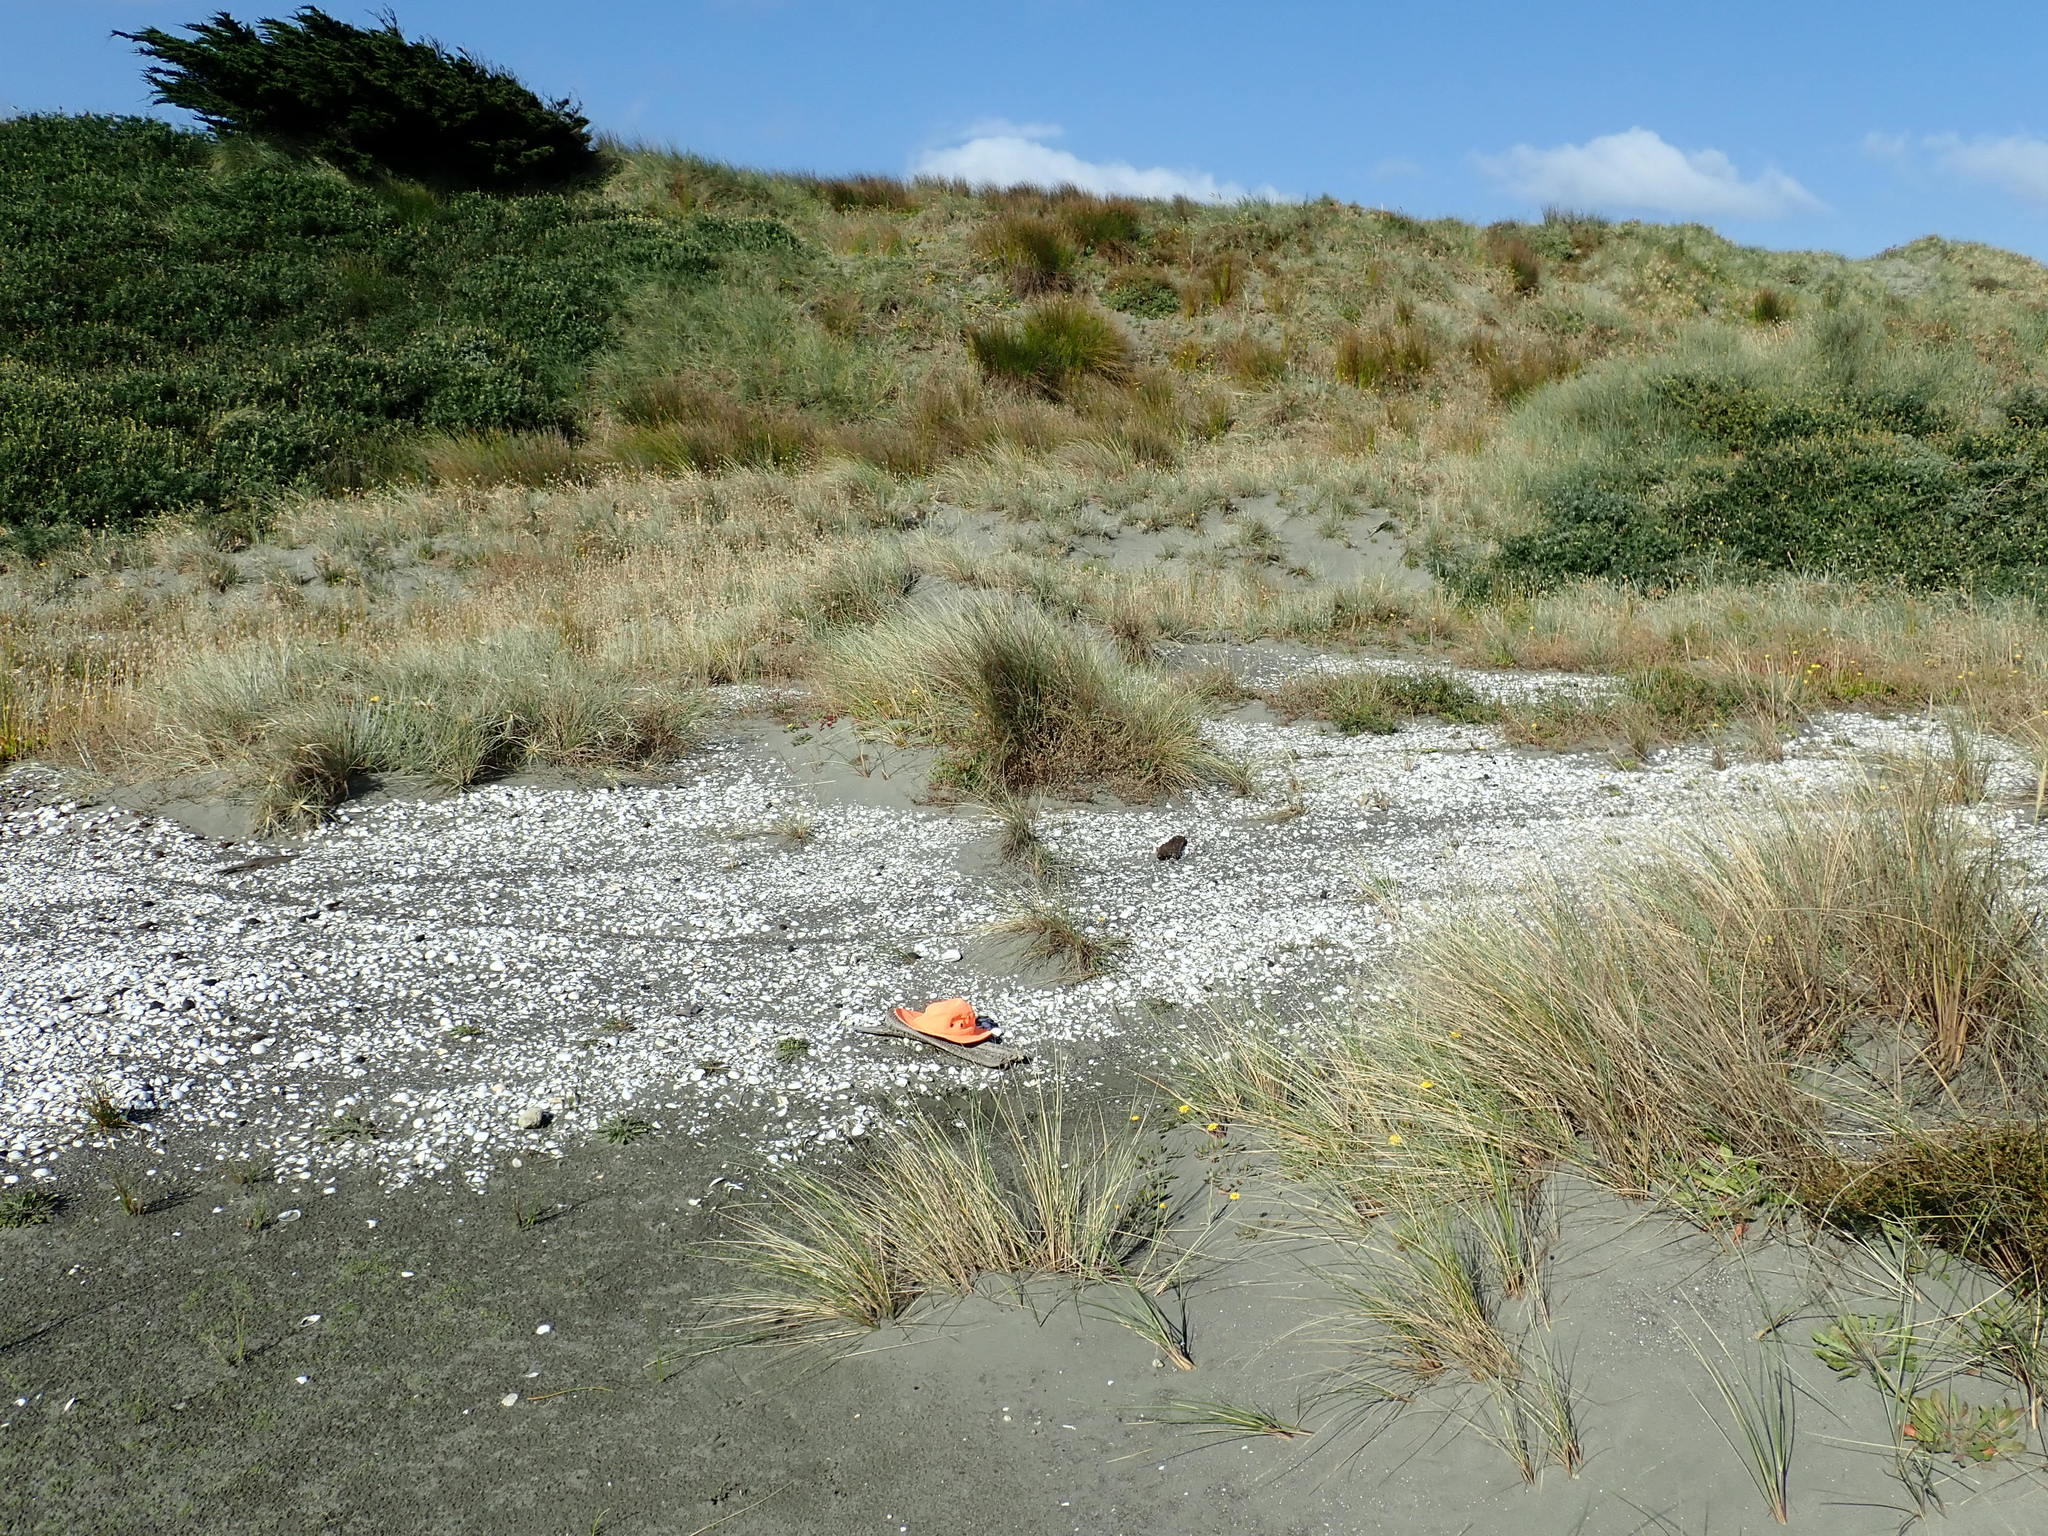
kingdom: Animalia
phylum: Arthropoda
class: Arachnida
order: Araneae
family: Theridiidae
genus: Steatoda
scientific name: Steatoda lepida
